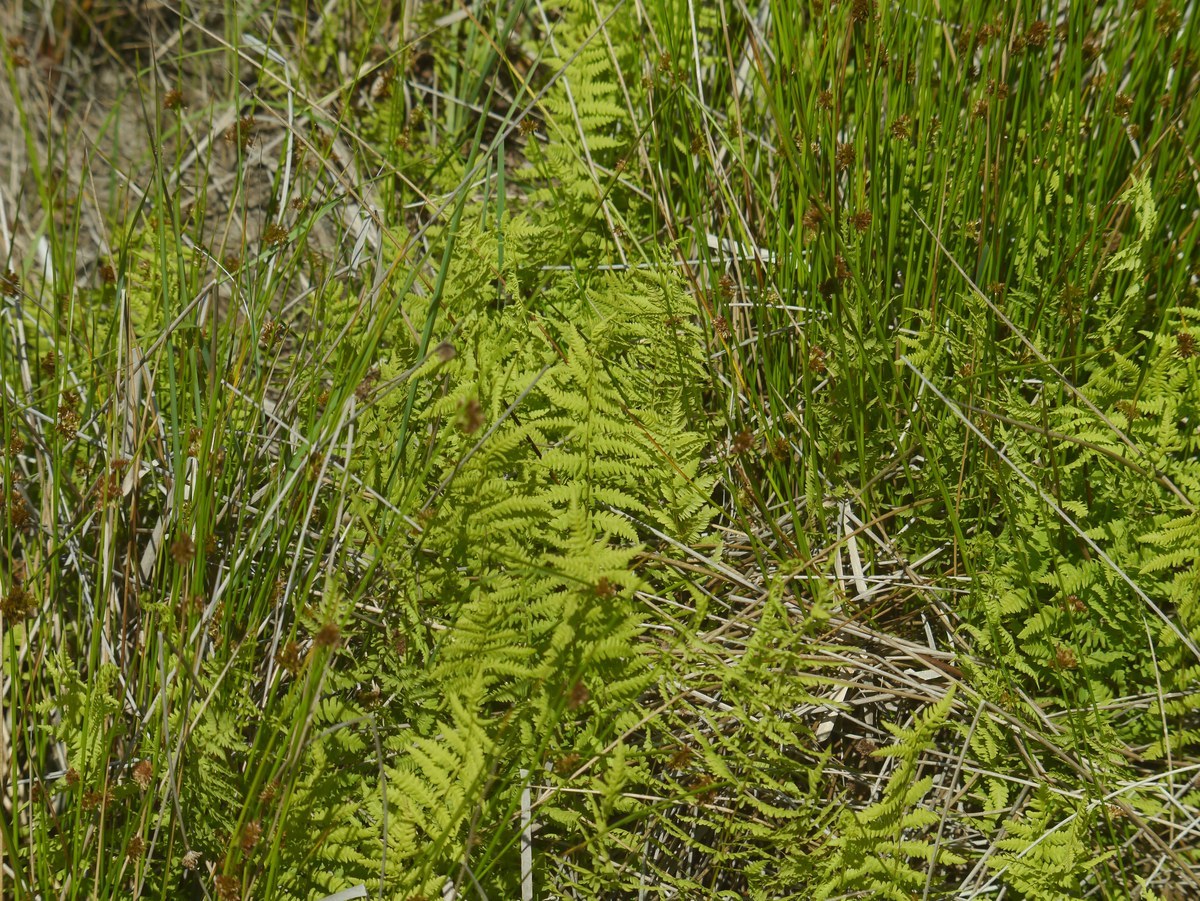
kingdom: Plantae
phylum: Tracheophyta
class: Polypodiopsida
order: Polypodiales
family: Thelypteridaceae
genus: Thelypteris
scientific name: Thelypteris palustris
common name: Marsh fern
